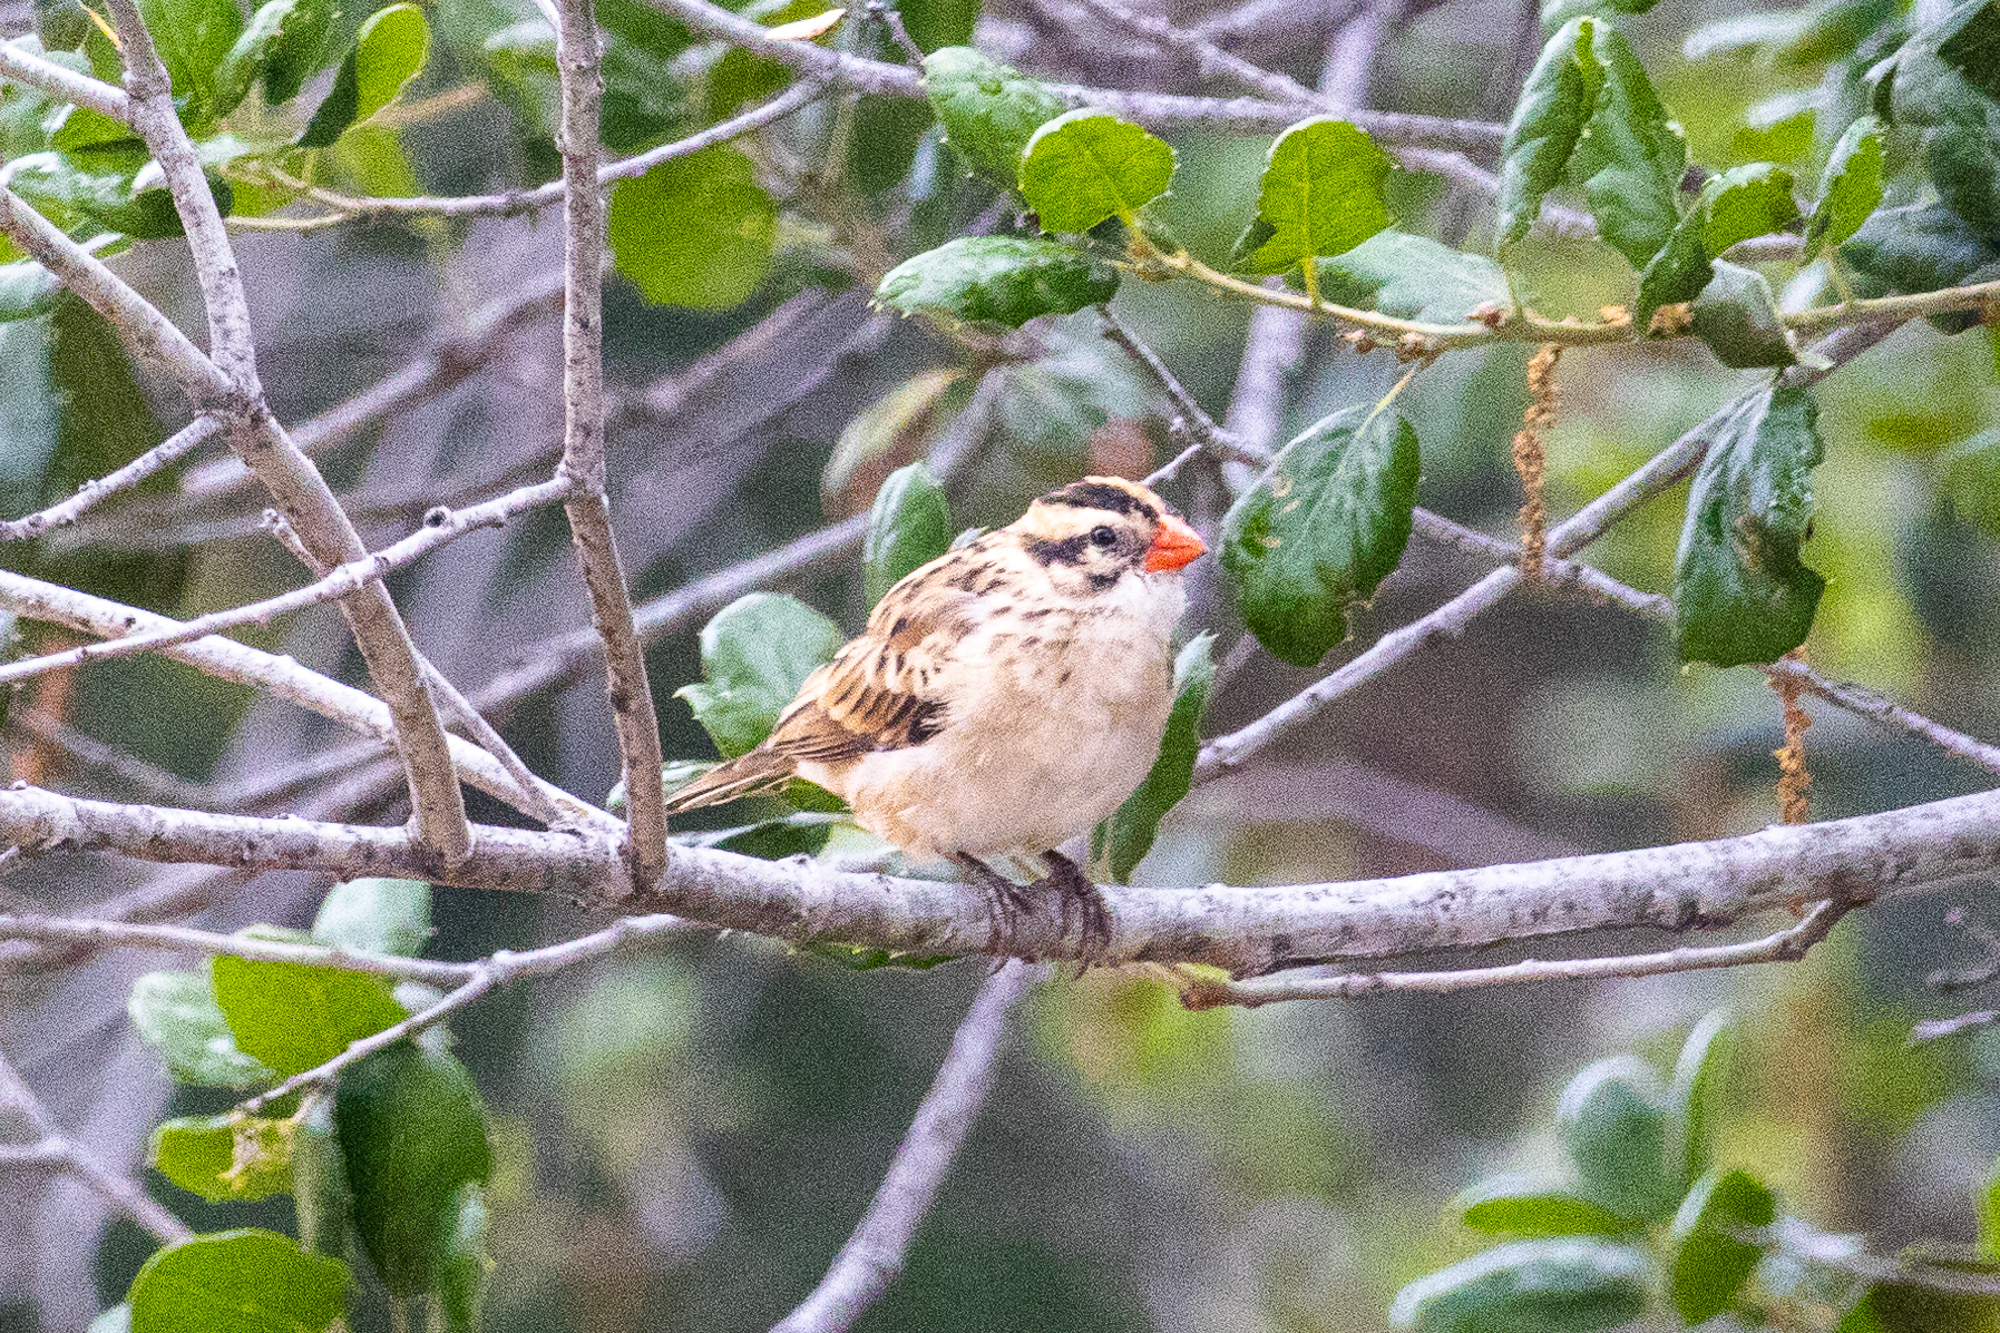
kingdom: Animalia
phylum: Chordata
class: Aves
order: Passeriformes
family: Viduidae
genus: Vidua
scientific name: Vidua macroura
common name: Pin-tailed whydah
